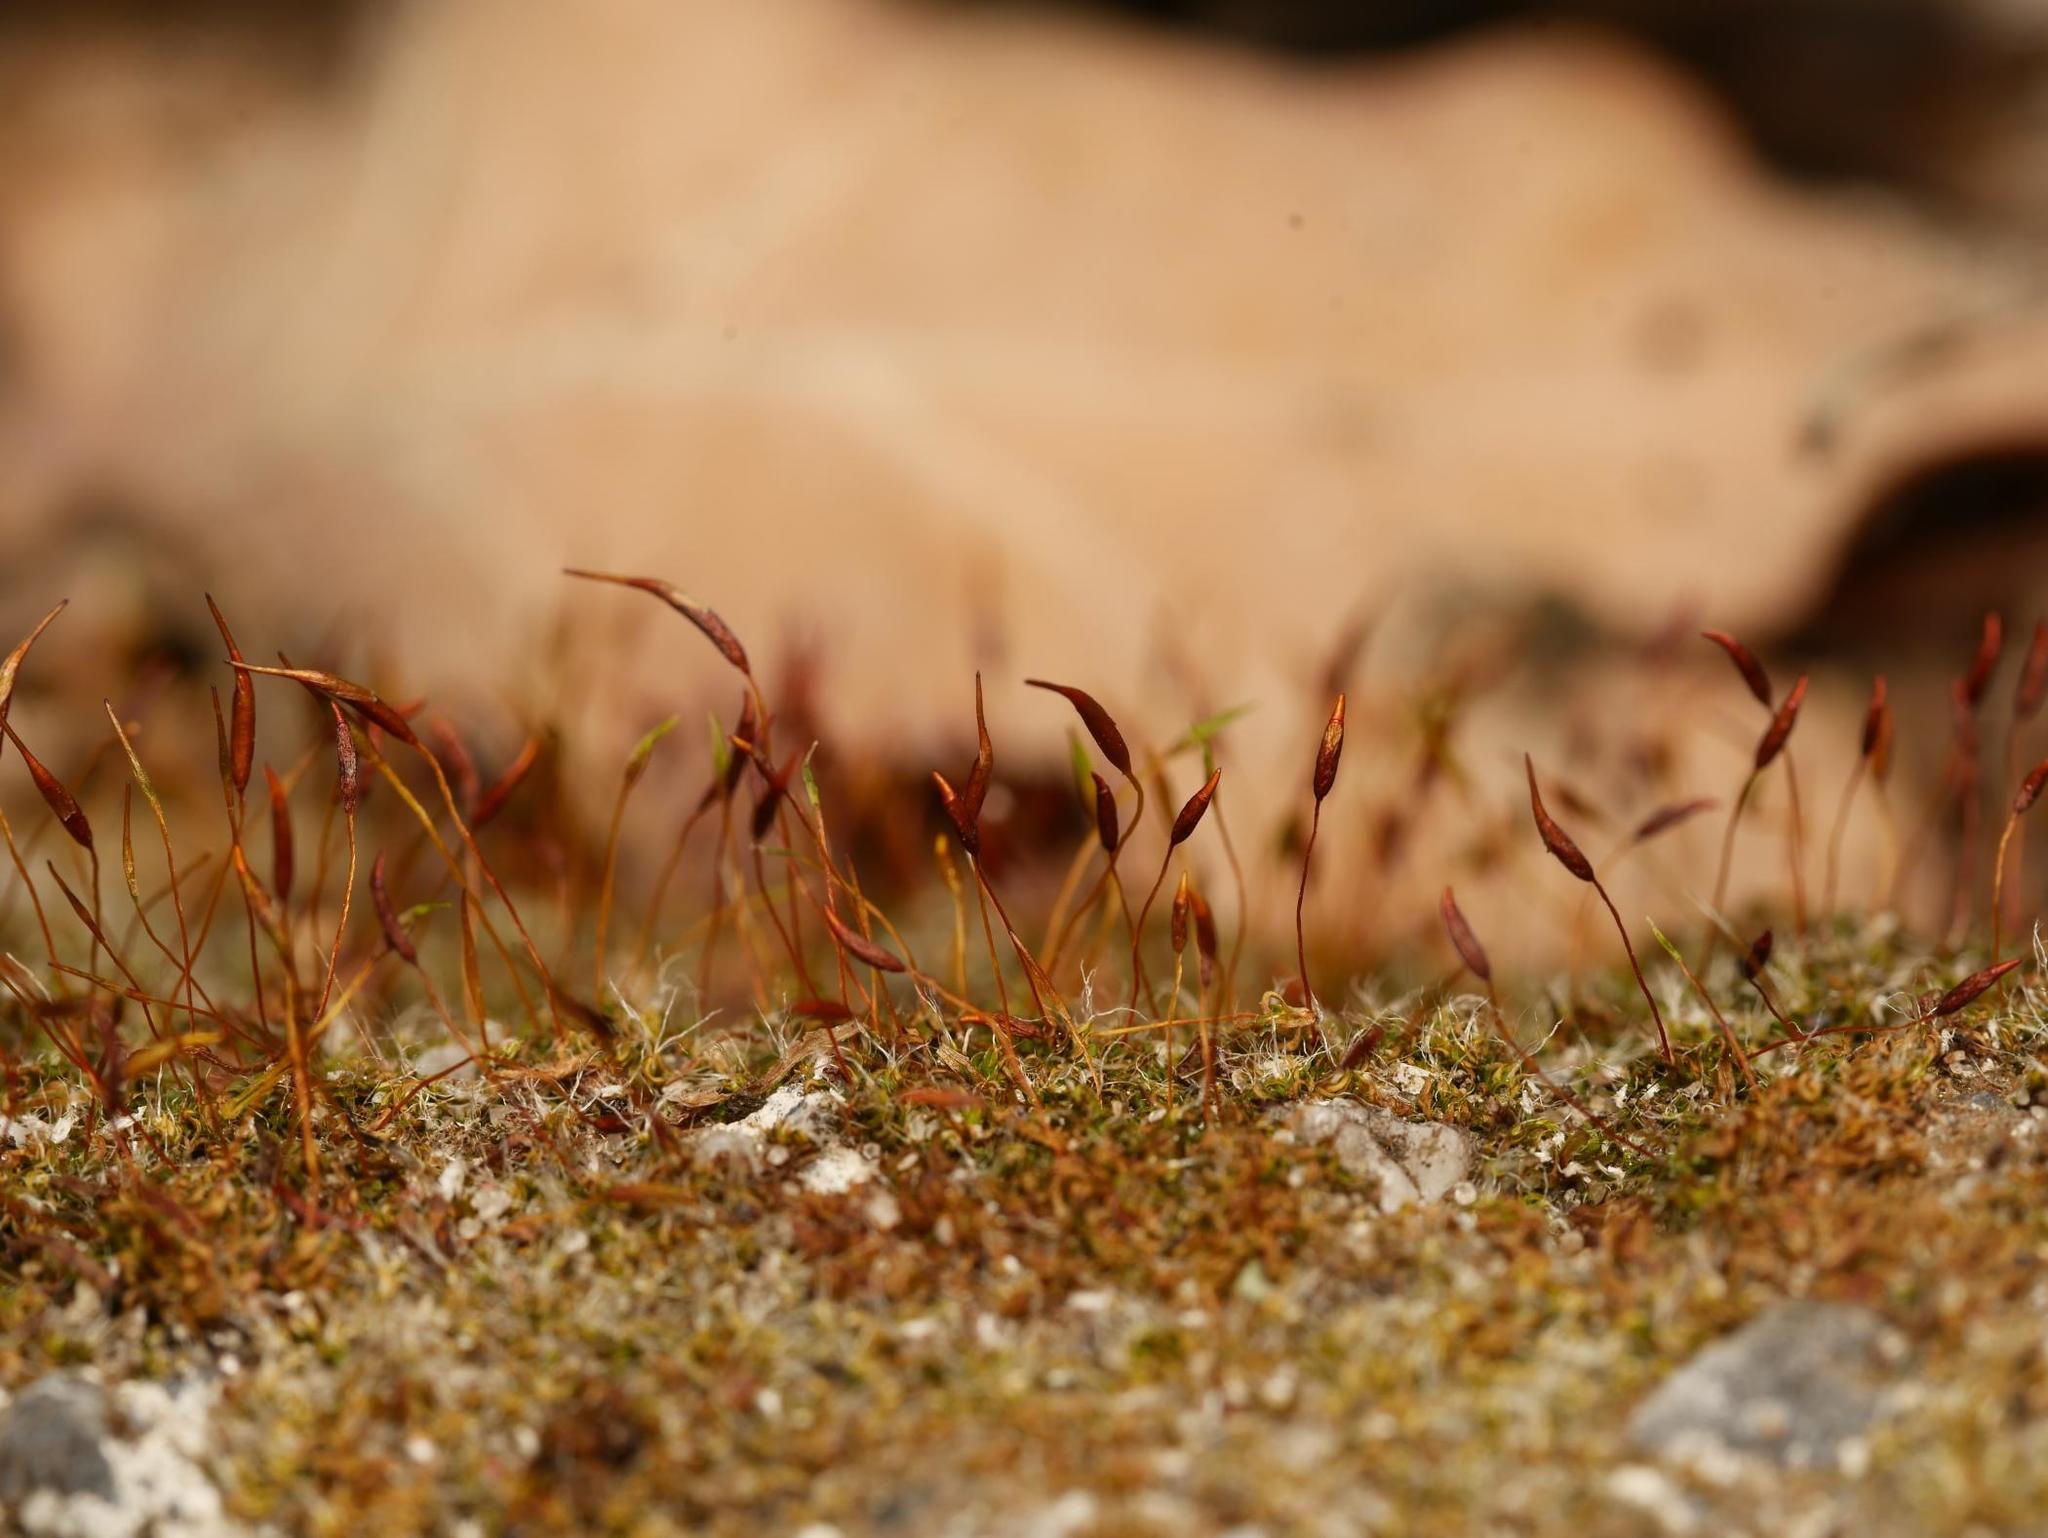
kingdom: Plantae
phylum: Bryophyta
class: Bryopsida
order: Pottiales
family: Pottiaceae
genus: Tortula
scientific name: Tortula muralis
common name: Wall screw-moss
